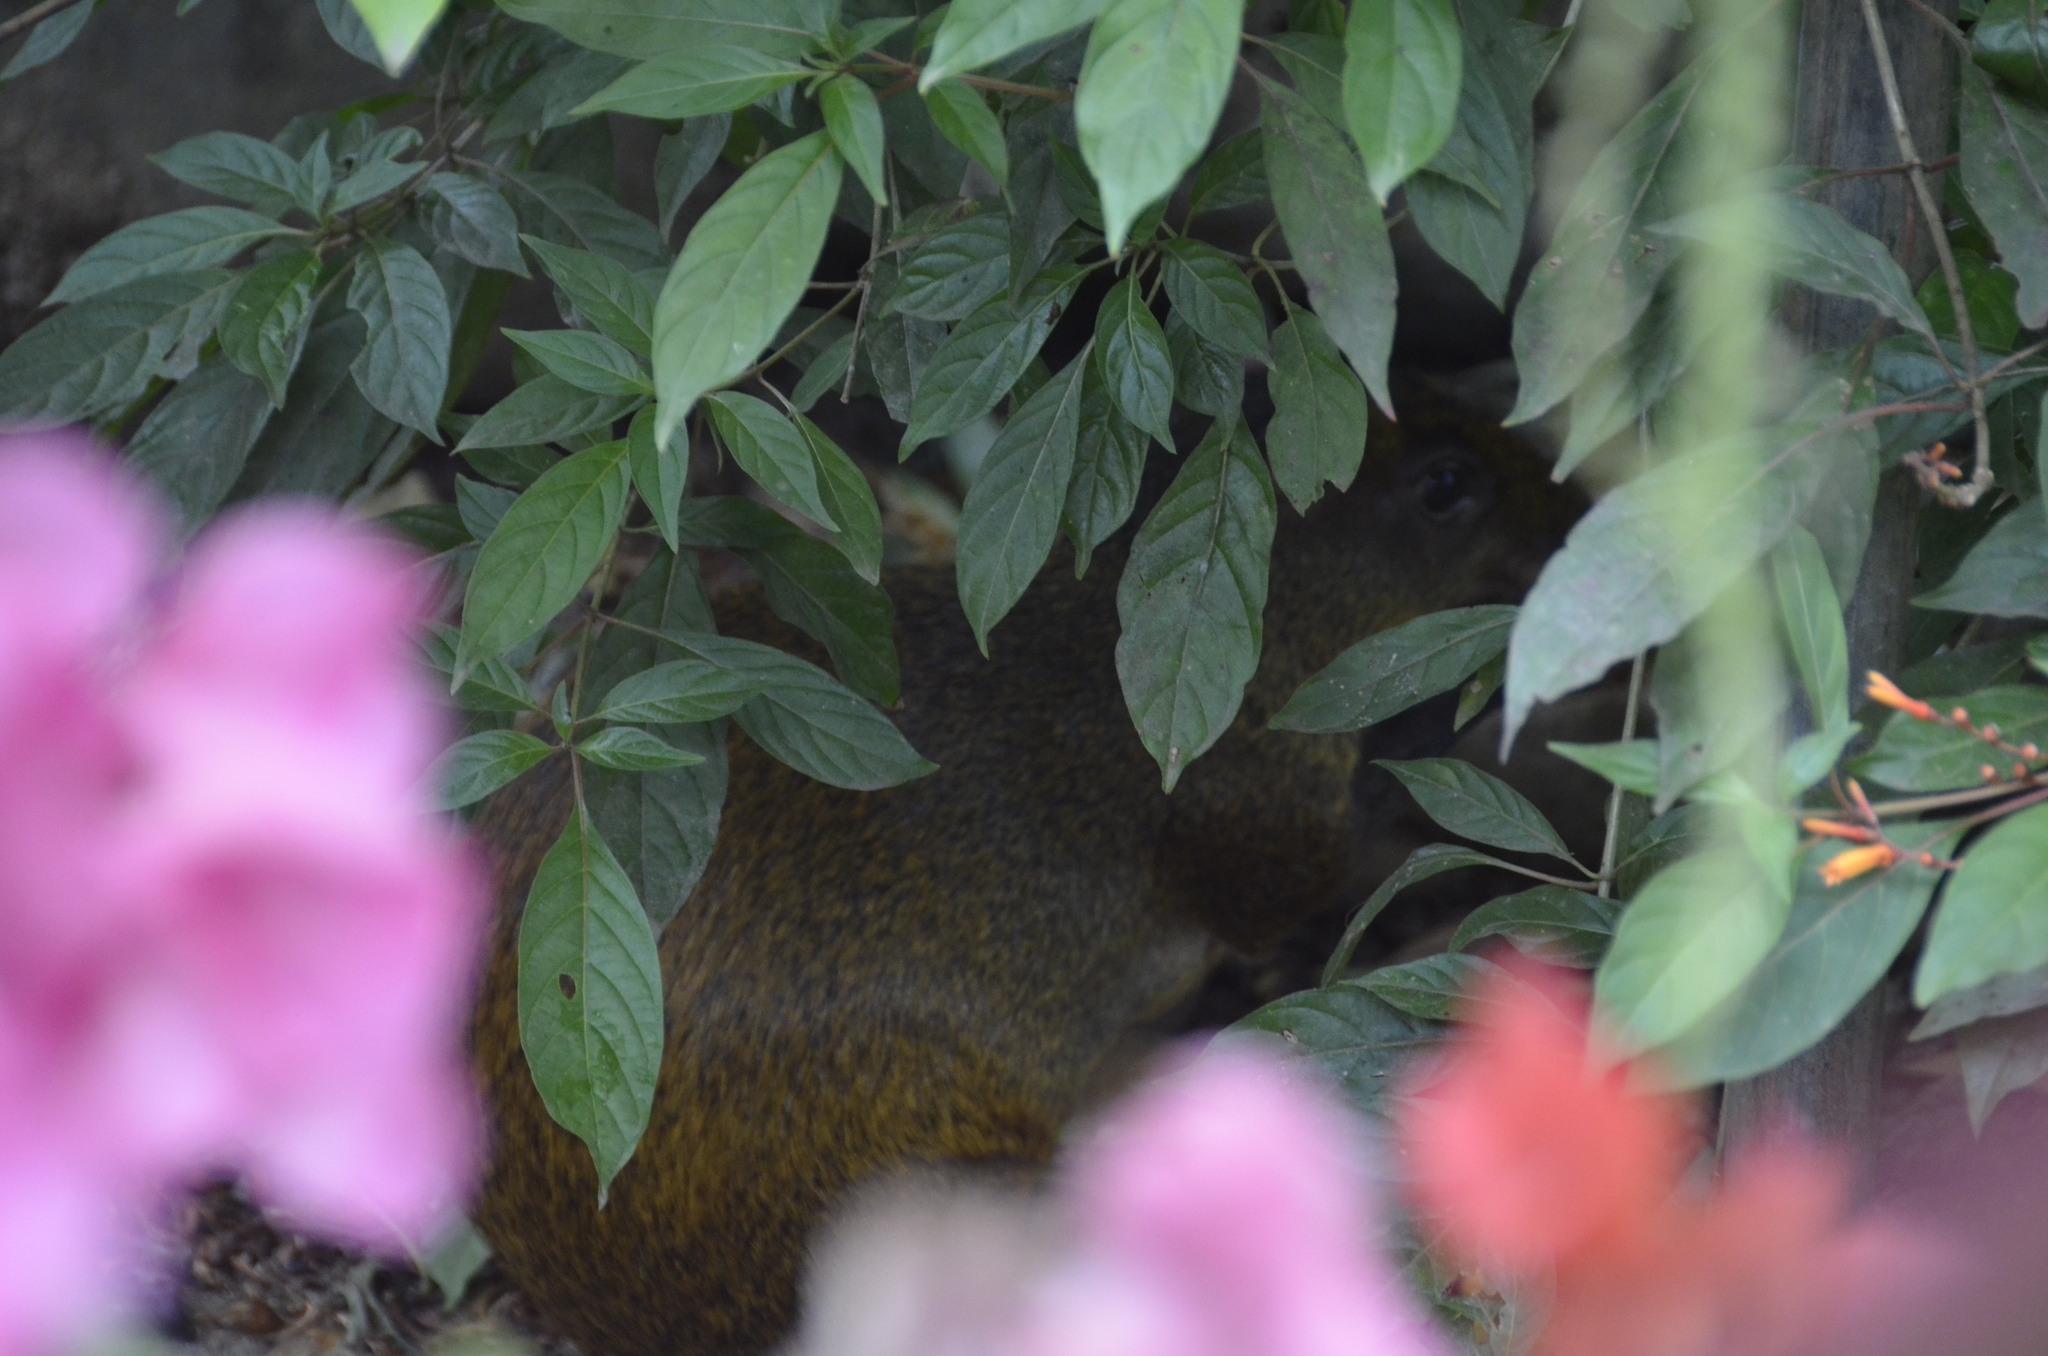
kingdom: Animalia
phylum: Chordata
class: Mammalia
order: Rodentia
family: Dasyproctidae
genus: Dasyprocta
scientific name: Dasyprocta punctata
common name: Central american agouti
